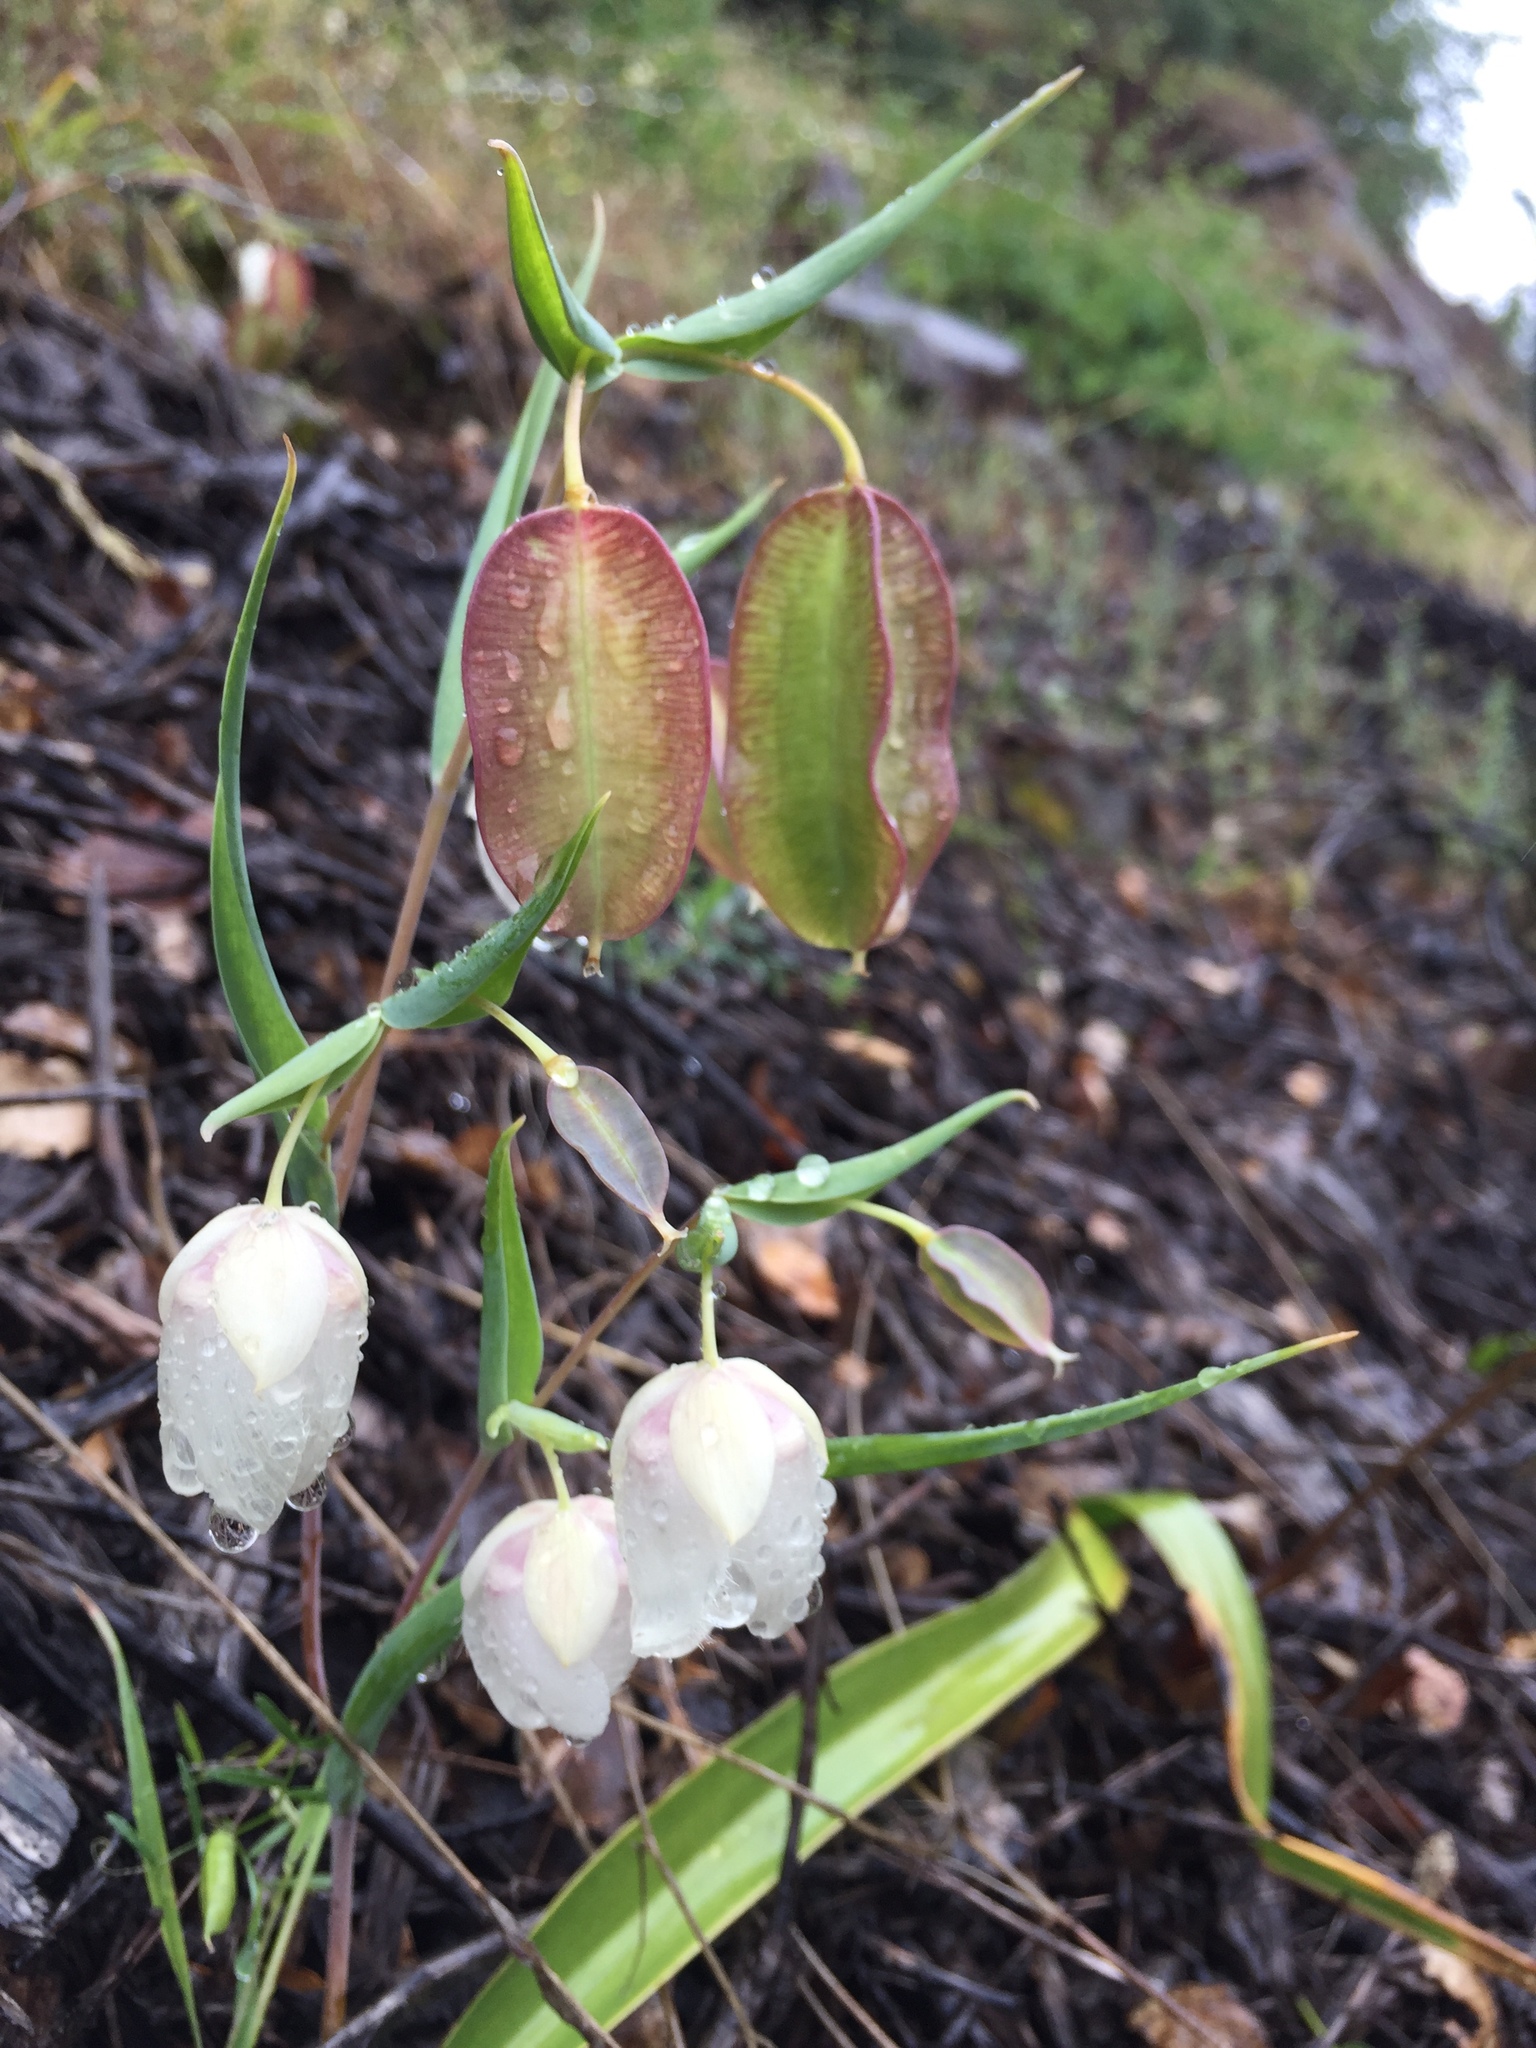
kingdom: Plantae
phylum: Tracheophyta
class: Liliopsida
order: Liliales
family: Liliaceae
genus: Calochortus
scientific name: Calochortus albus
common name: Fairy-lantern
